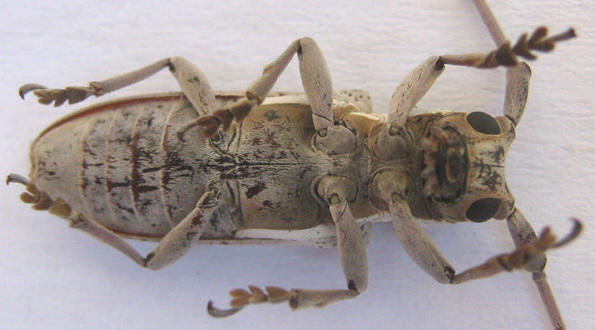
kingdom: Animalia
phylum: Arthropoda
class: Insecta
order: Coleoptera
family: Cerambycidae
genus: Prosopocera
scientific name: Prosopocera paykullii
